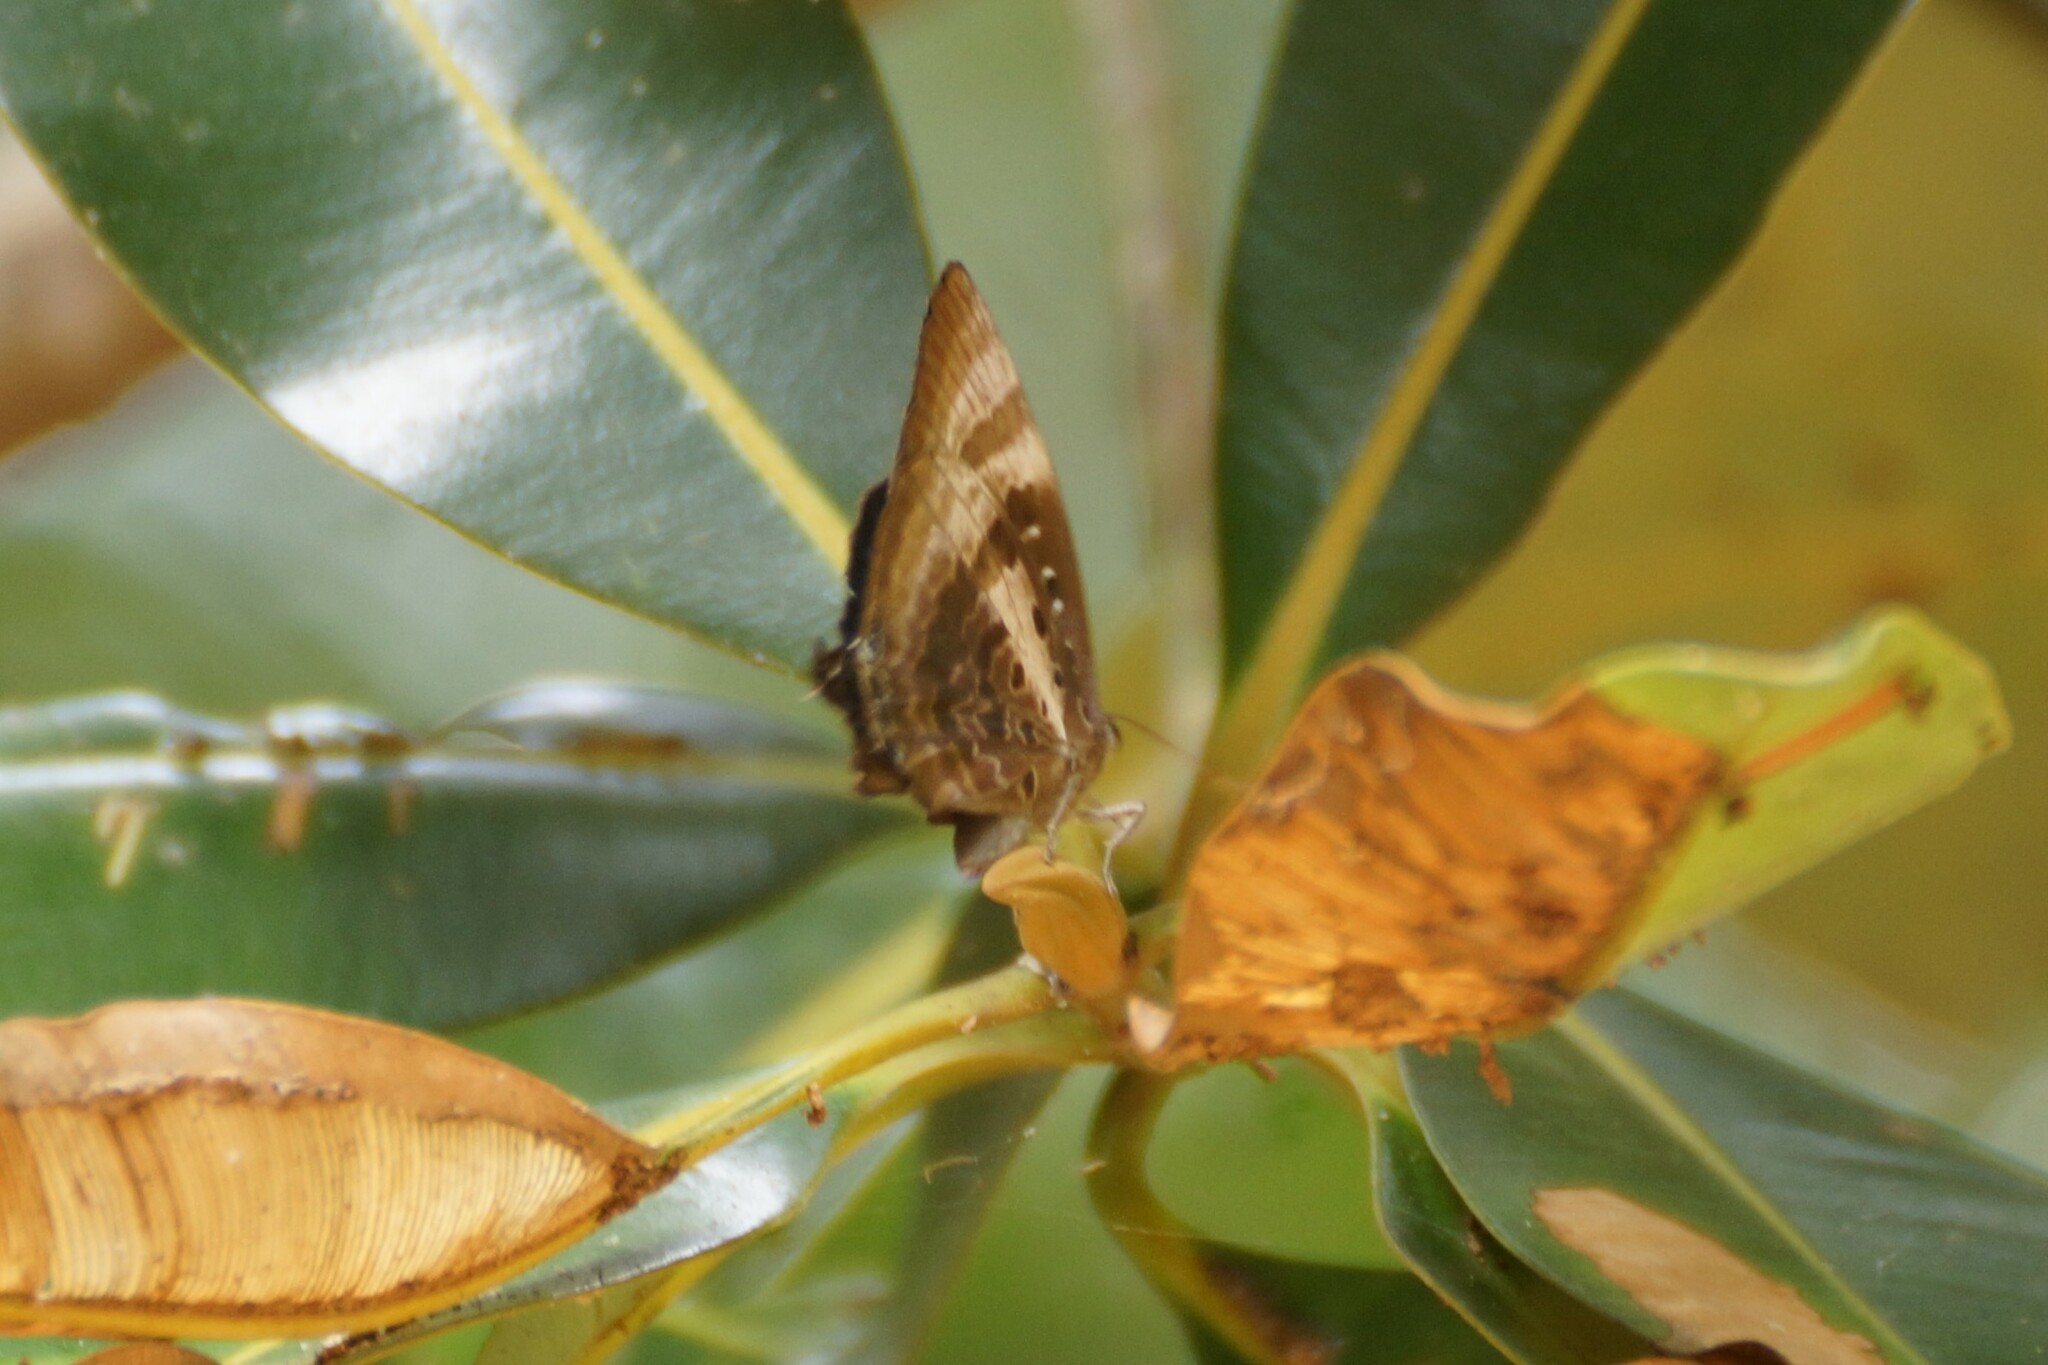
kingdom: Animalia
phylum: Arthropoda
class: Insecta
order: Lepidoptera
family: Lycaenidae
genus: Arhopala
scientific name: Arhopala micale
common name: Shining oak-blue
